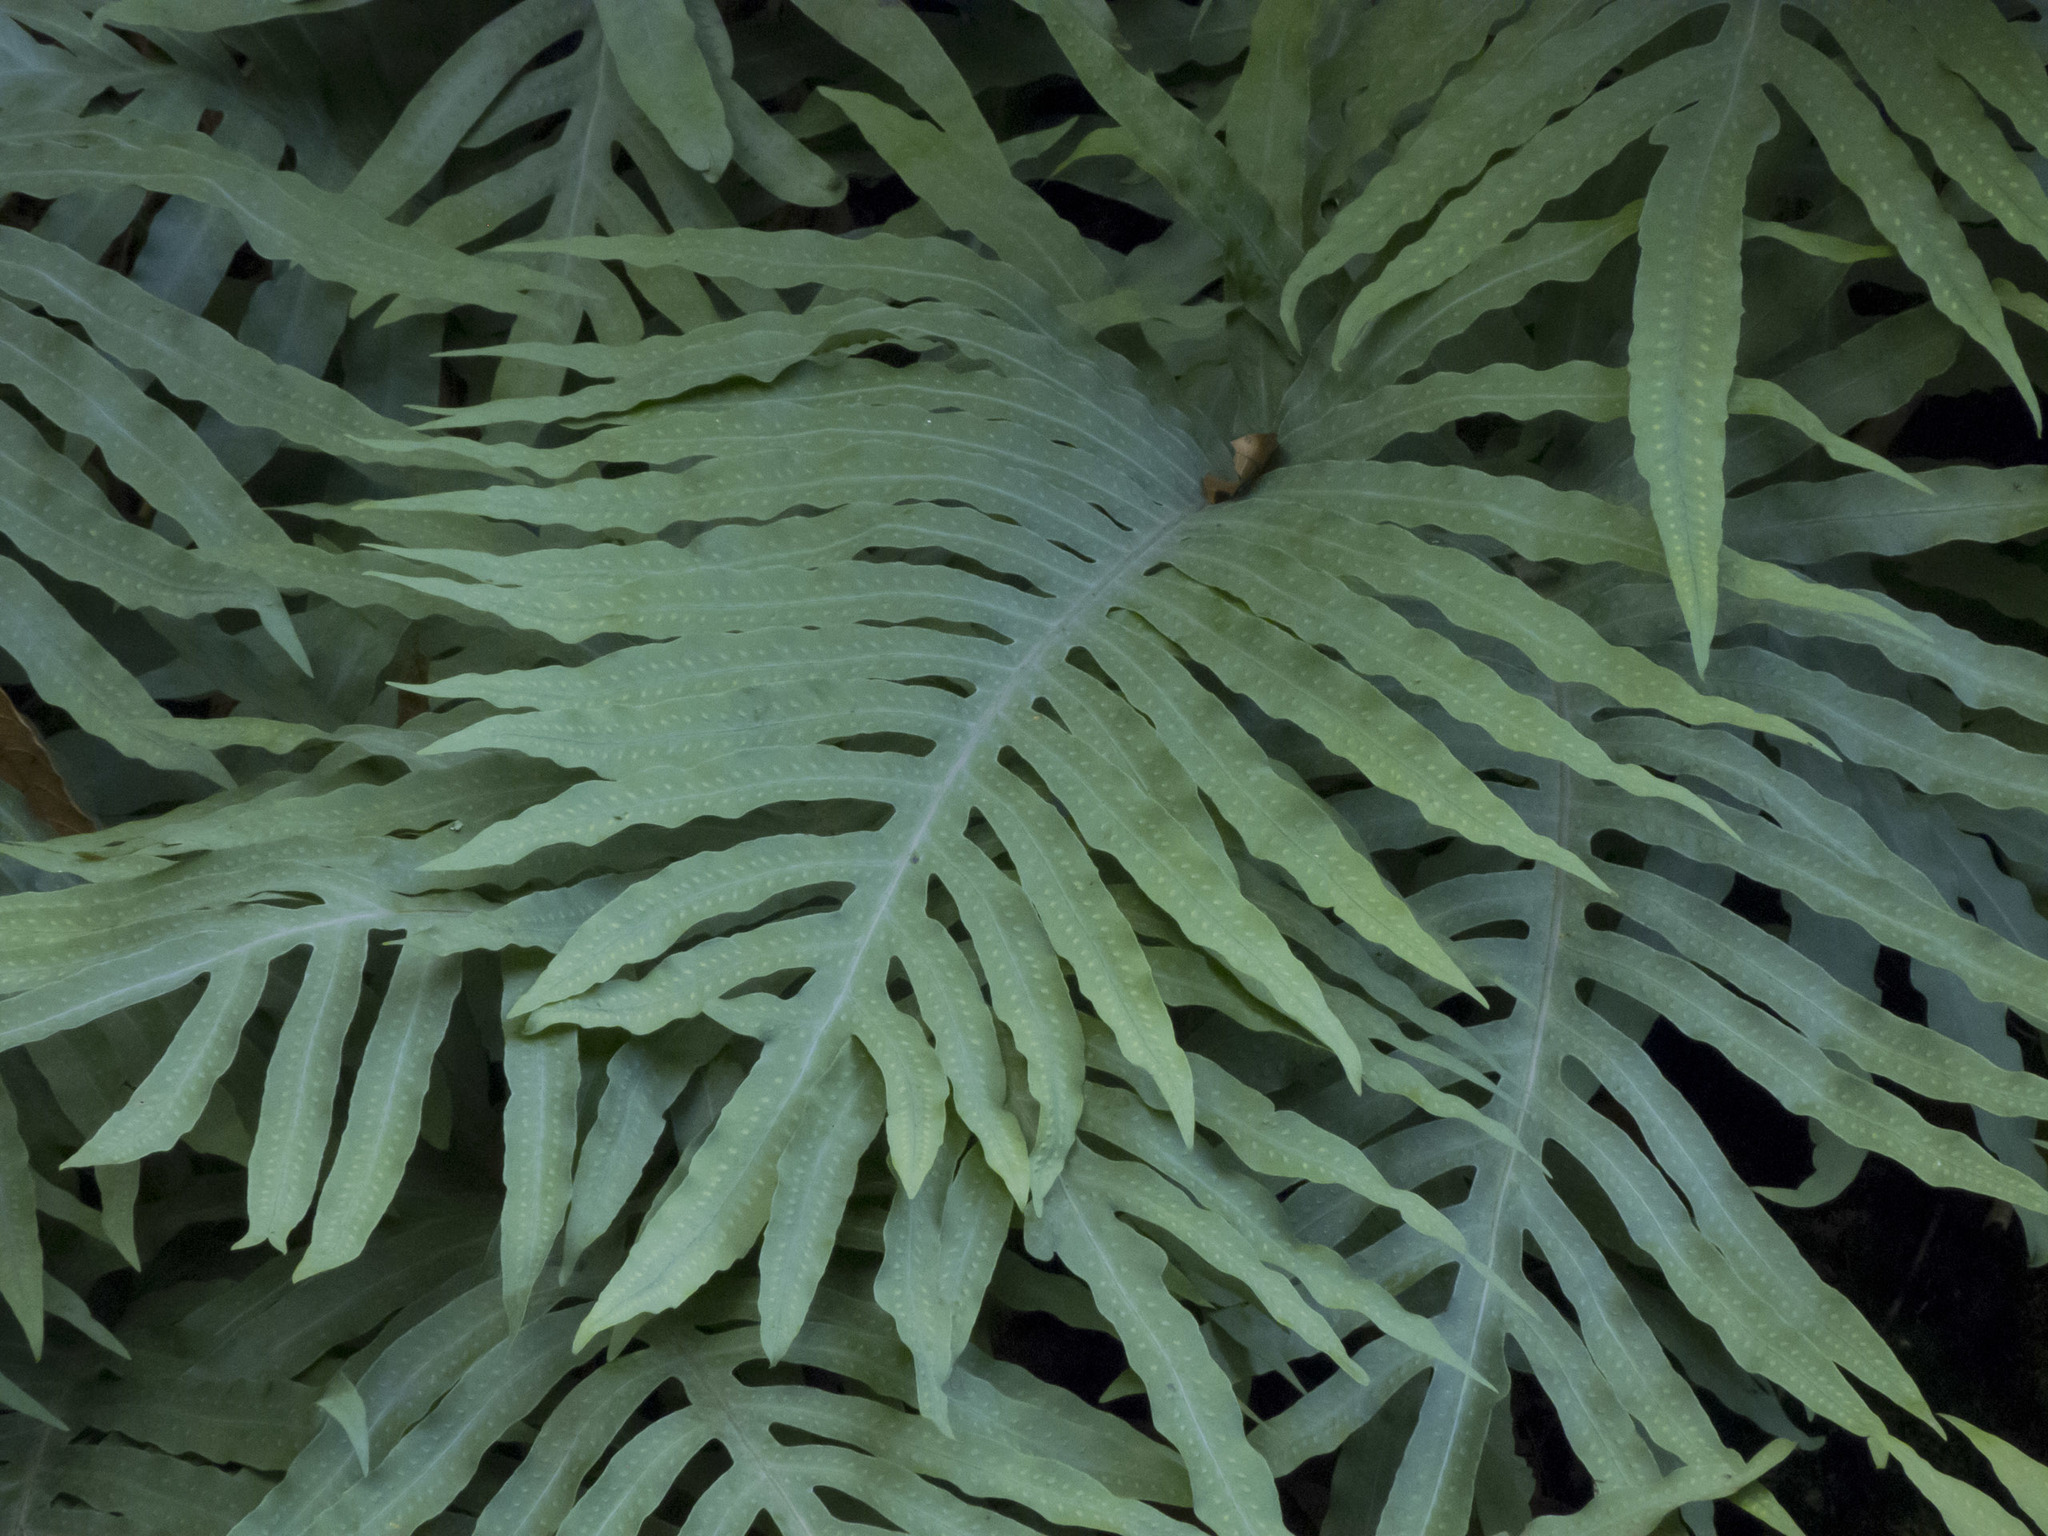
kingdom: Plantae
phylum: Tracheophyta
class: Polypodiopsida
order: Polypodiales
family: Polypodiaceae
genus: Phlebodium
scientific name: Phlebodium pseudoaureum
